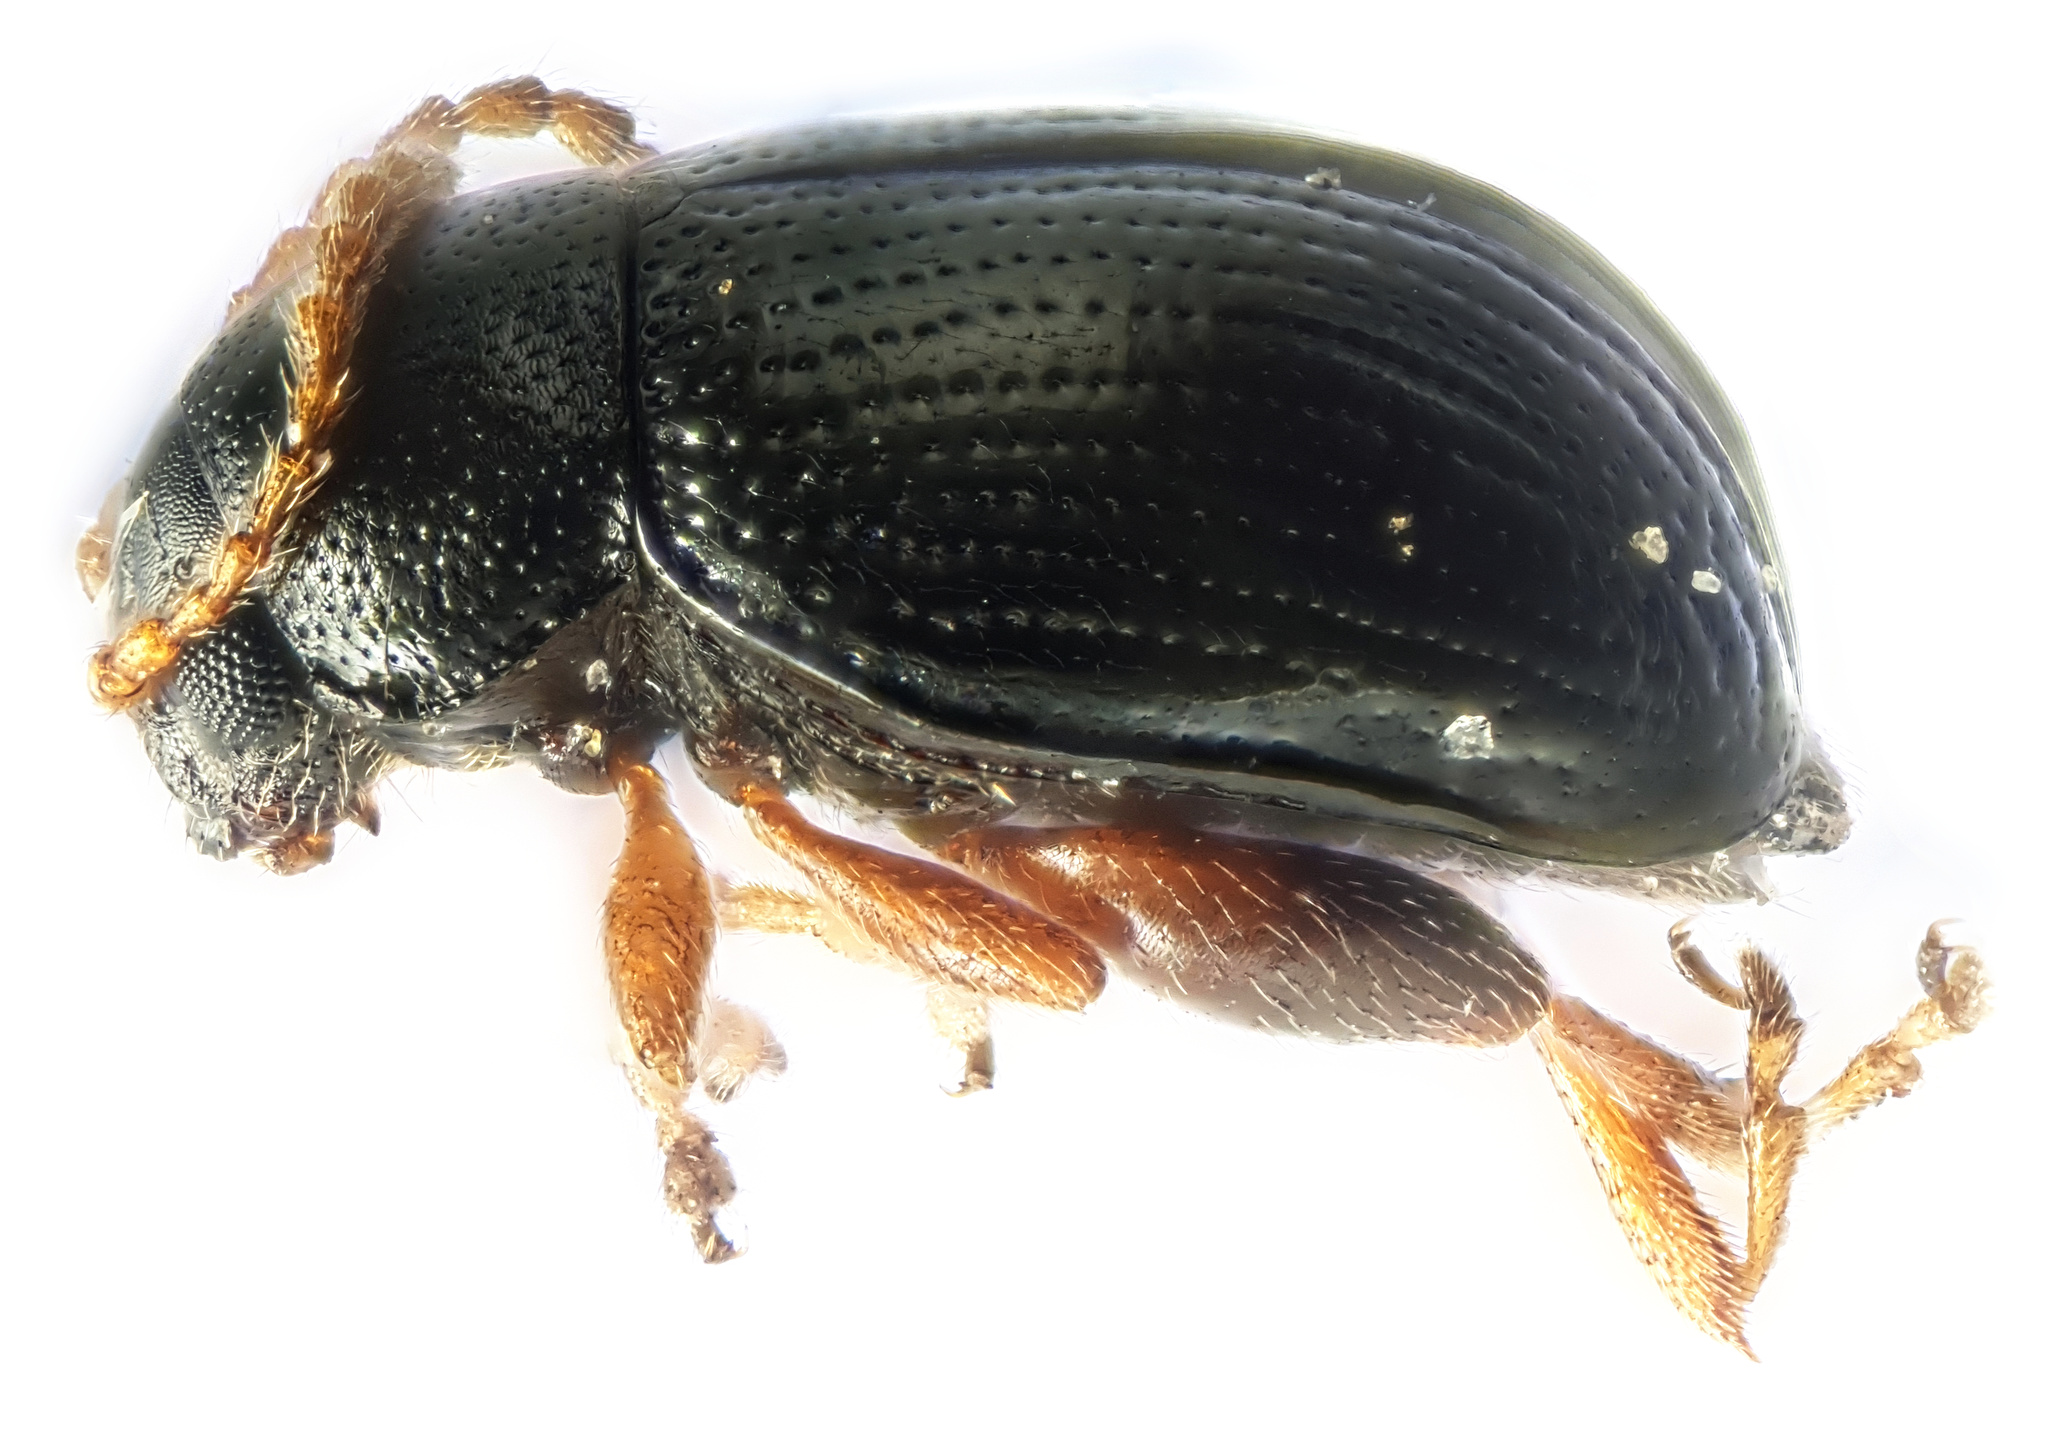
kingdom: Animalia
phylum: Arthropoda
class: Insecta
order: Coleoptera
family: Chrysomelidae
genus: Batophila
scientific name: Batophila rubi
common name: Raspberry flea beetle
